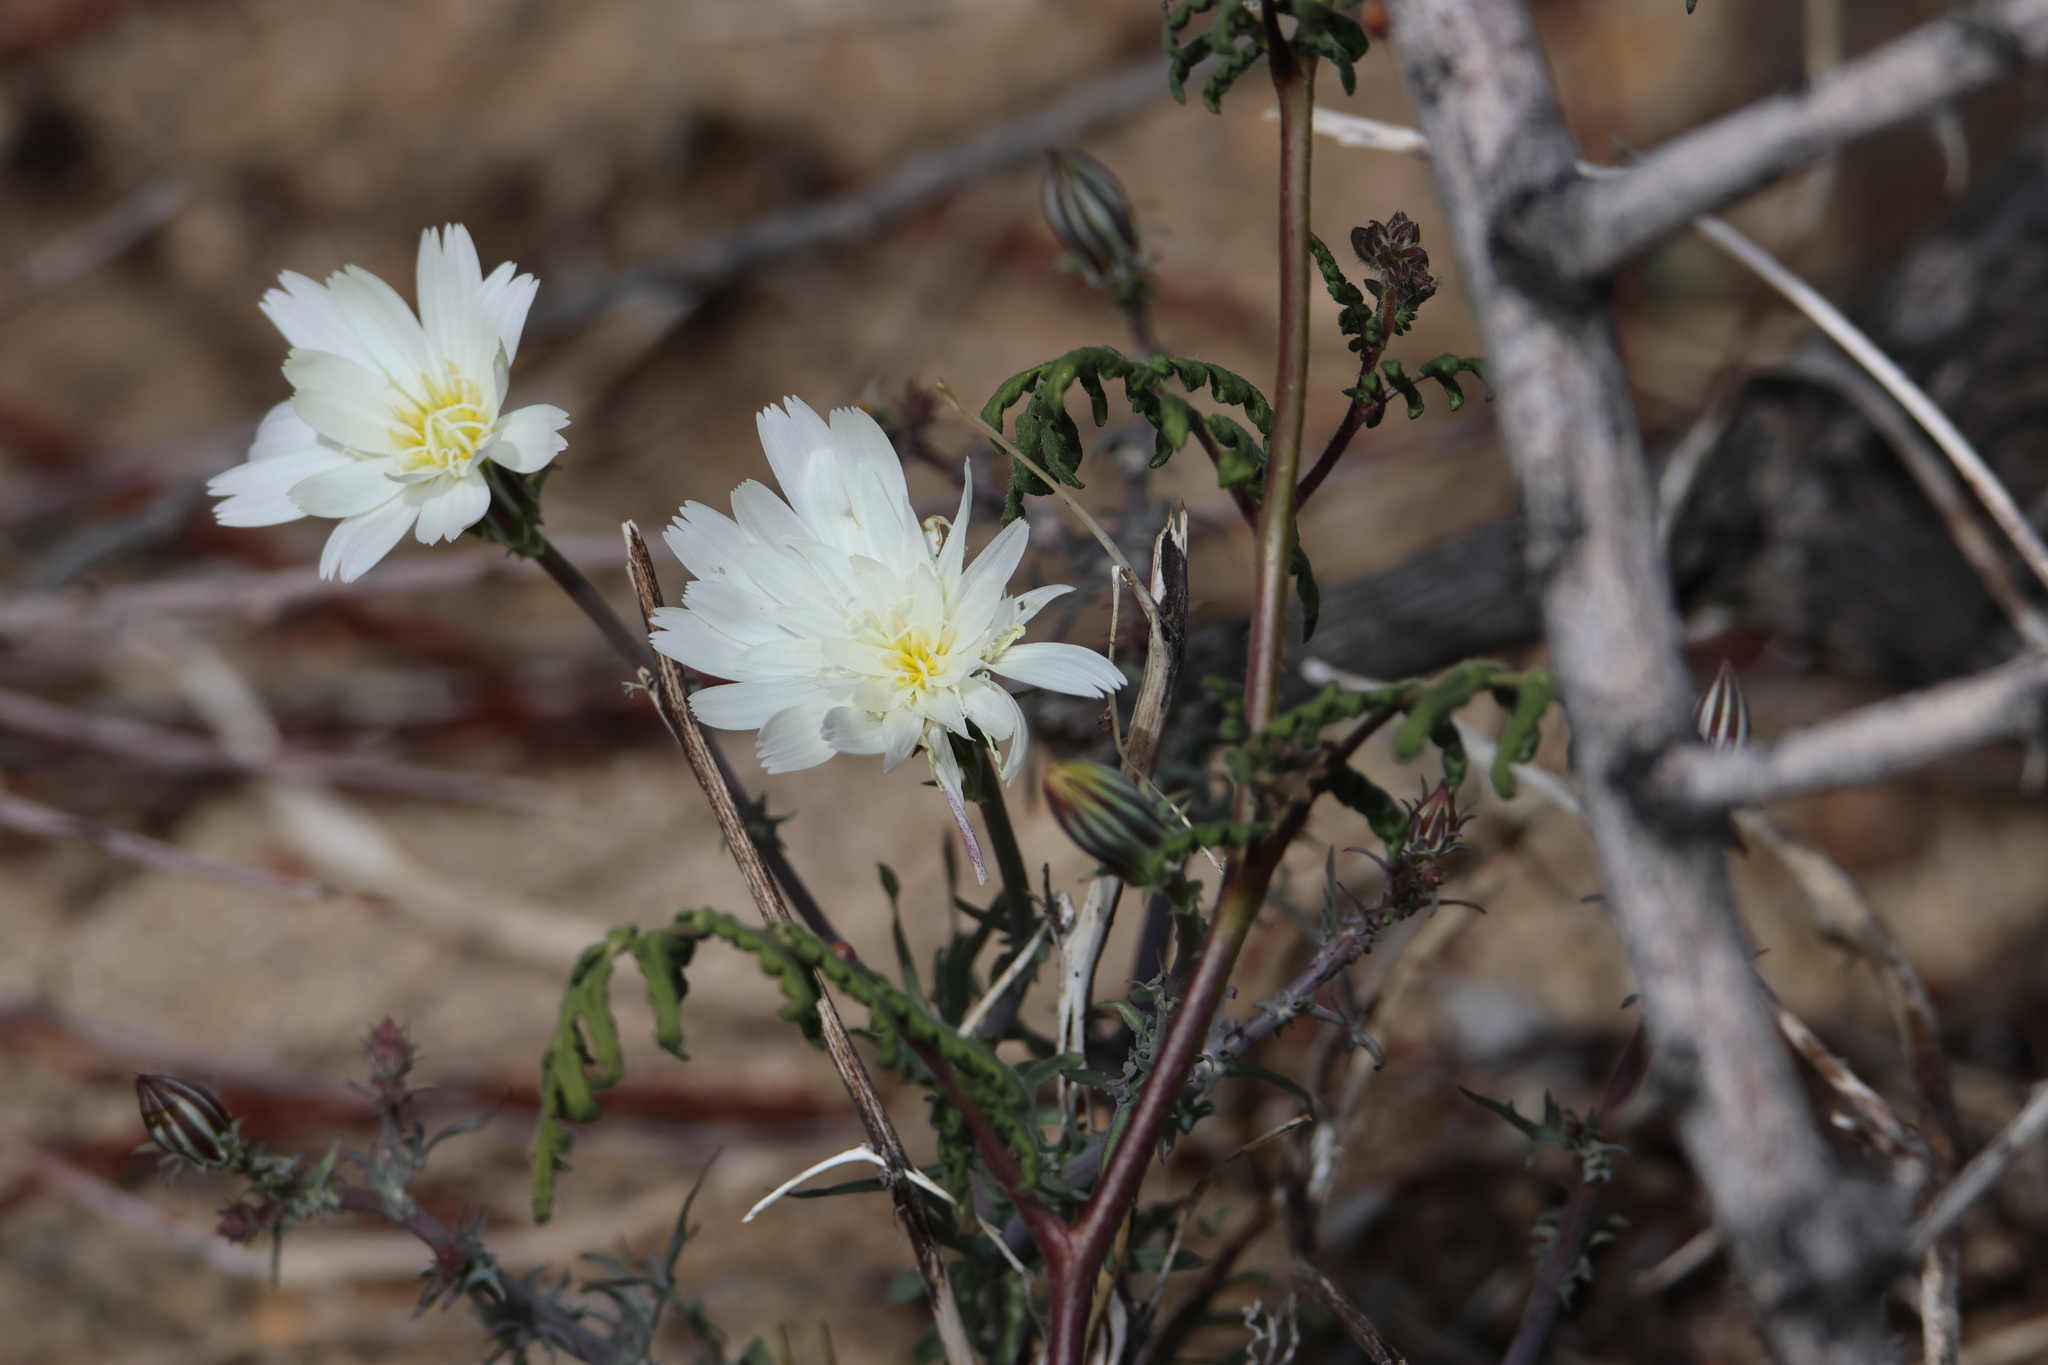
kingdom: Plantae
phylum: Tracheophyta
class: Magnoliopsida
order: Asterales
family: Asteraceae
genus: Rafinesquia
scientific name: Rafinesquia neomexicana
